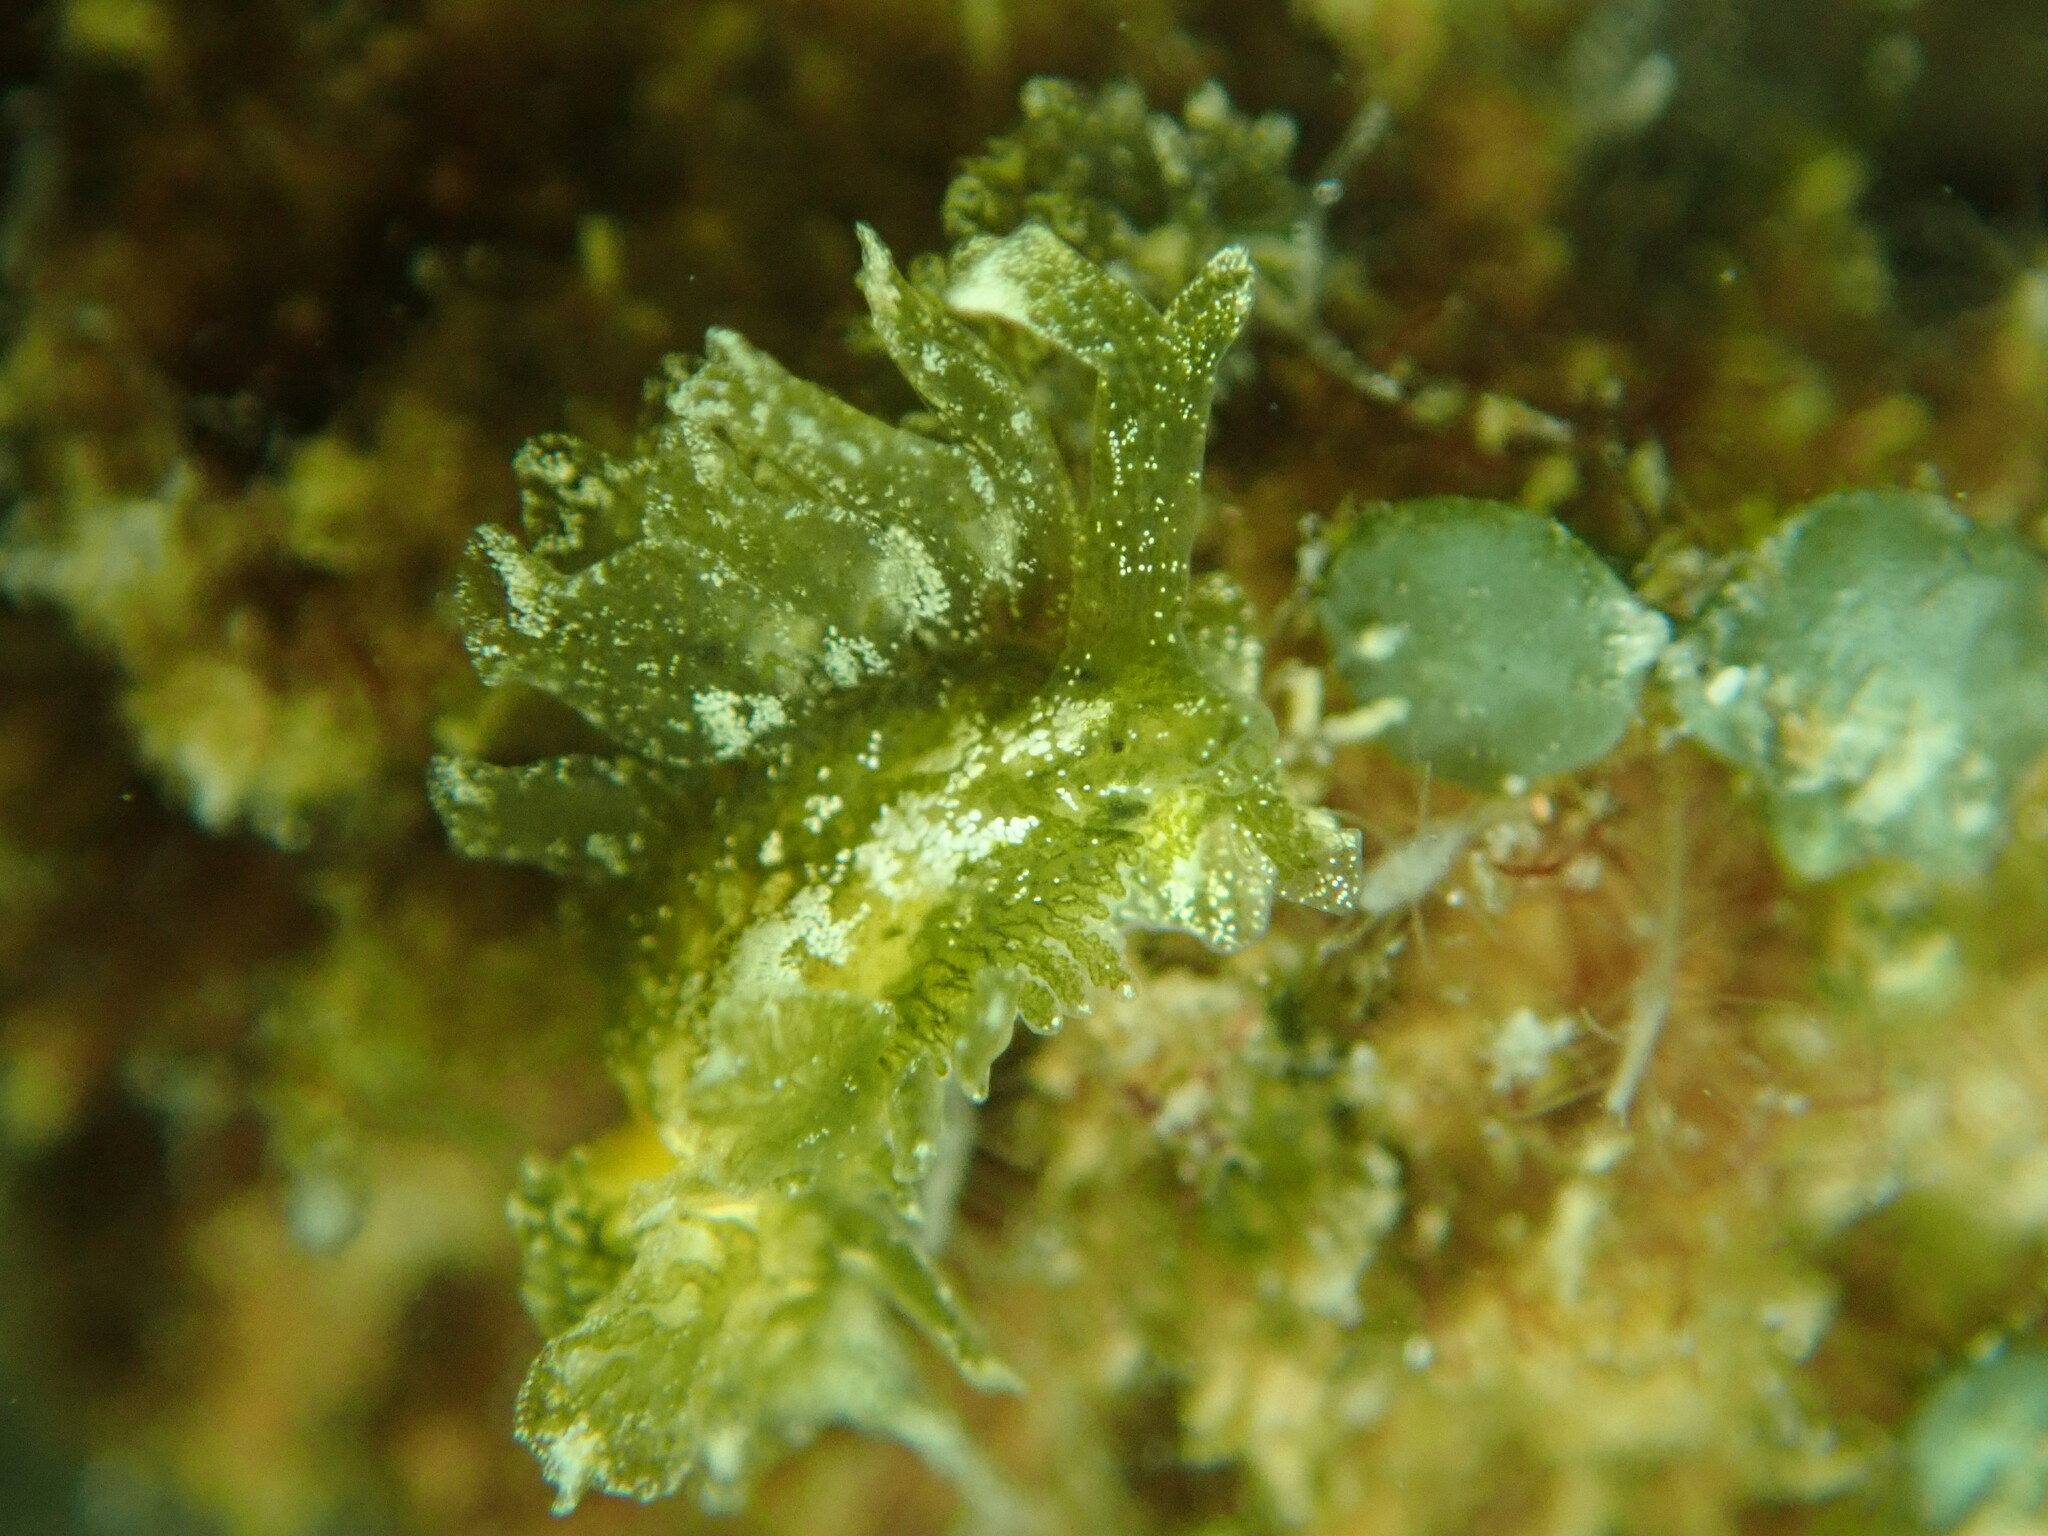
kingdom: Animalia
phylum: Mollusca
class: Gastropoda
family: Hermaeidae
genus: Caliphylla
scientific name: Caliphylla mediterranea
